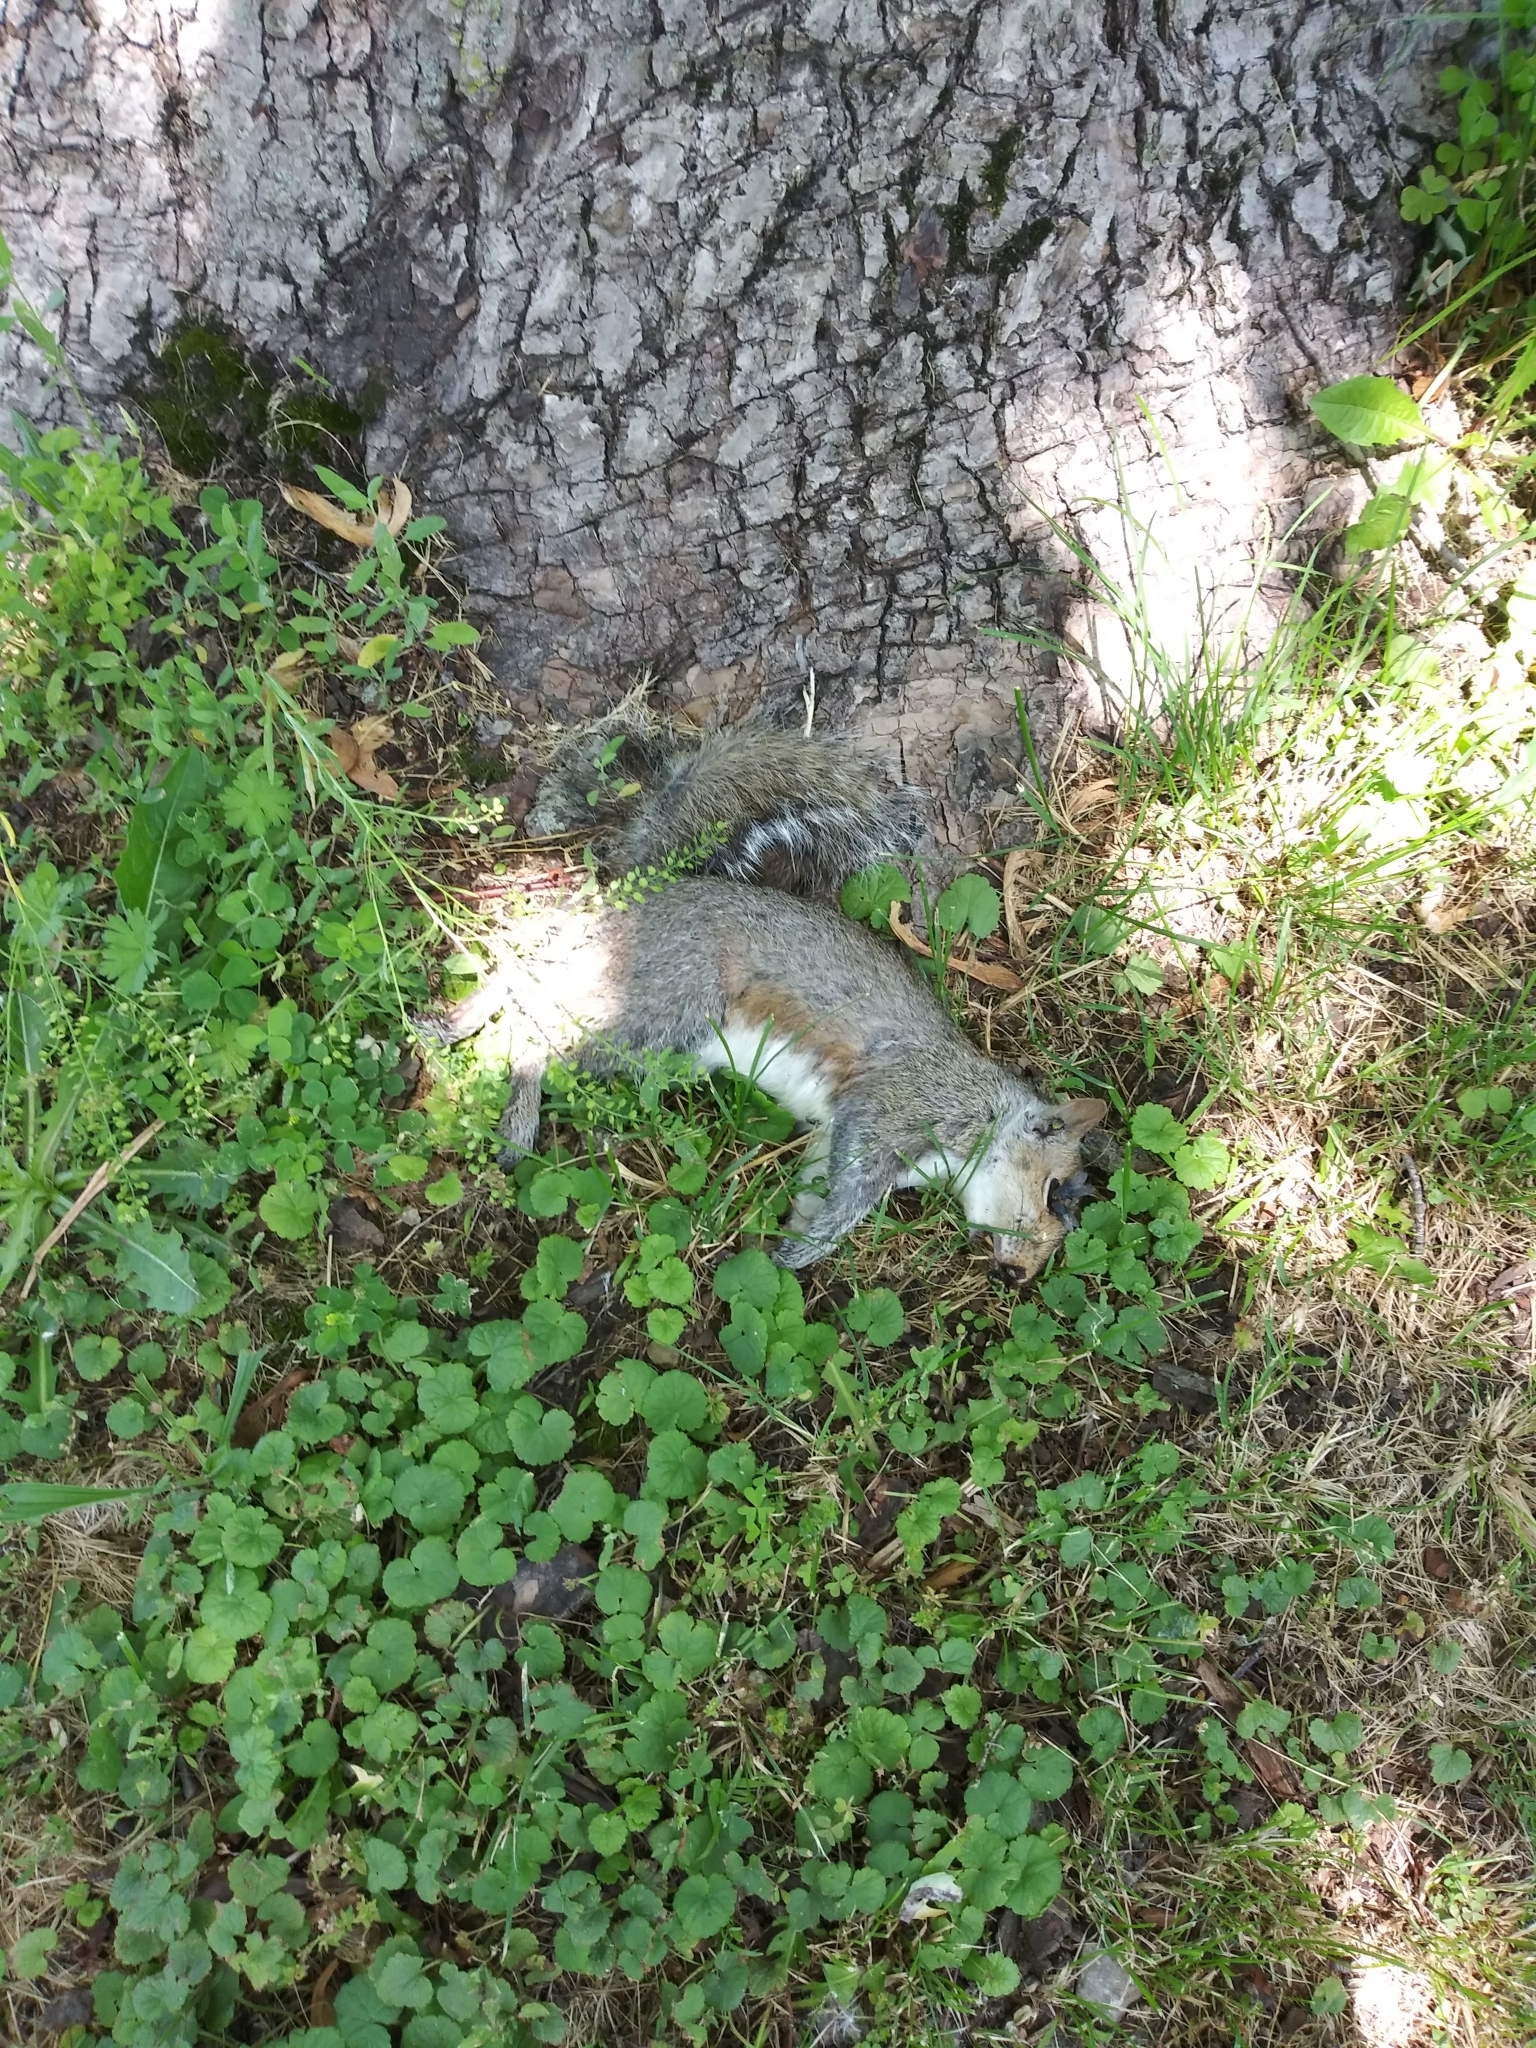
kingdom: Animalia
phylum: Chordata
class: Mammalia
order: Rodentia
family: Sciuridae
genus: Sciurus
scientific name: Sciurus carolinensis
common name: Eastern gray squirrel
